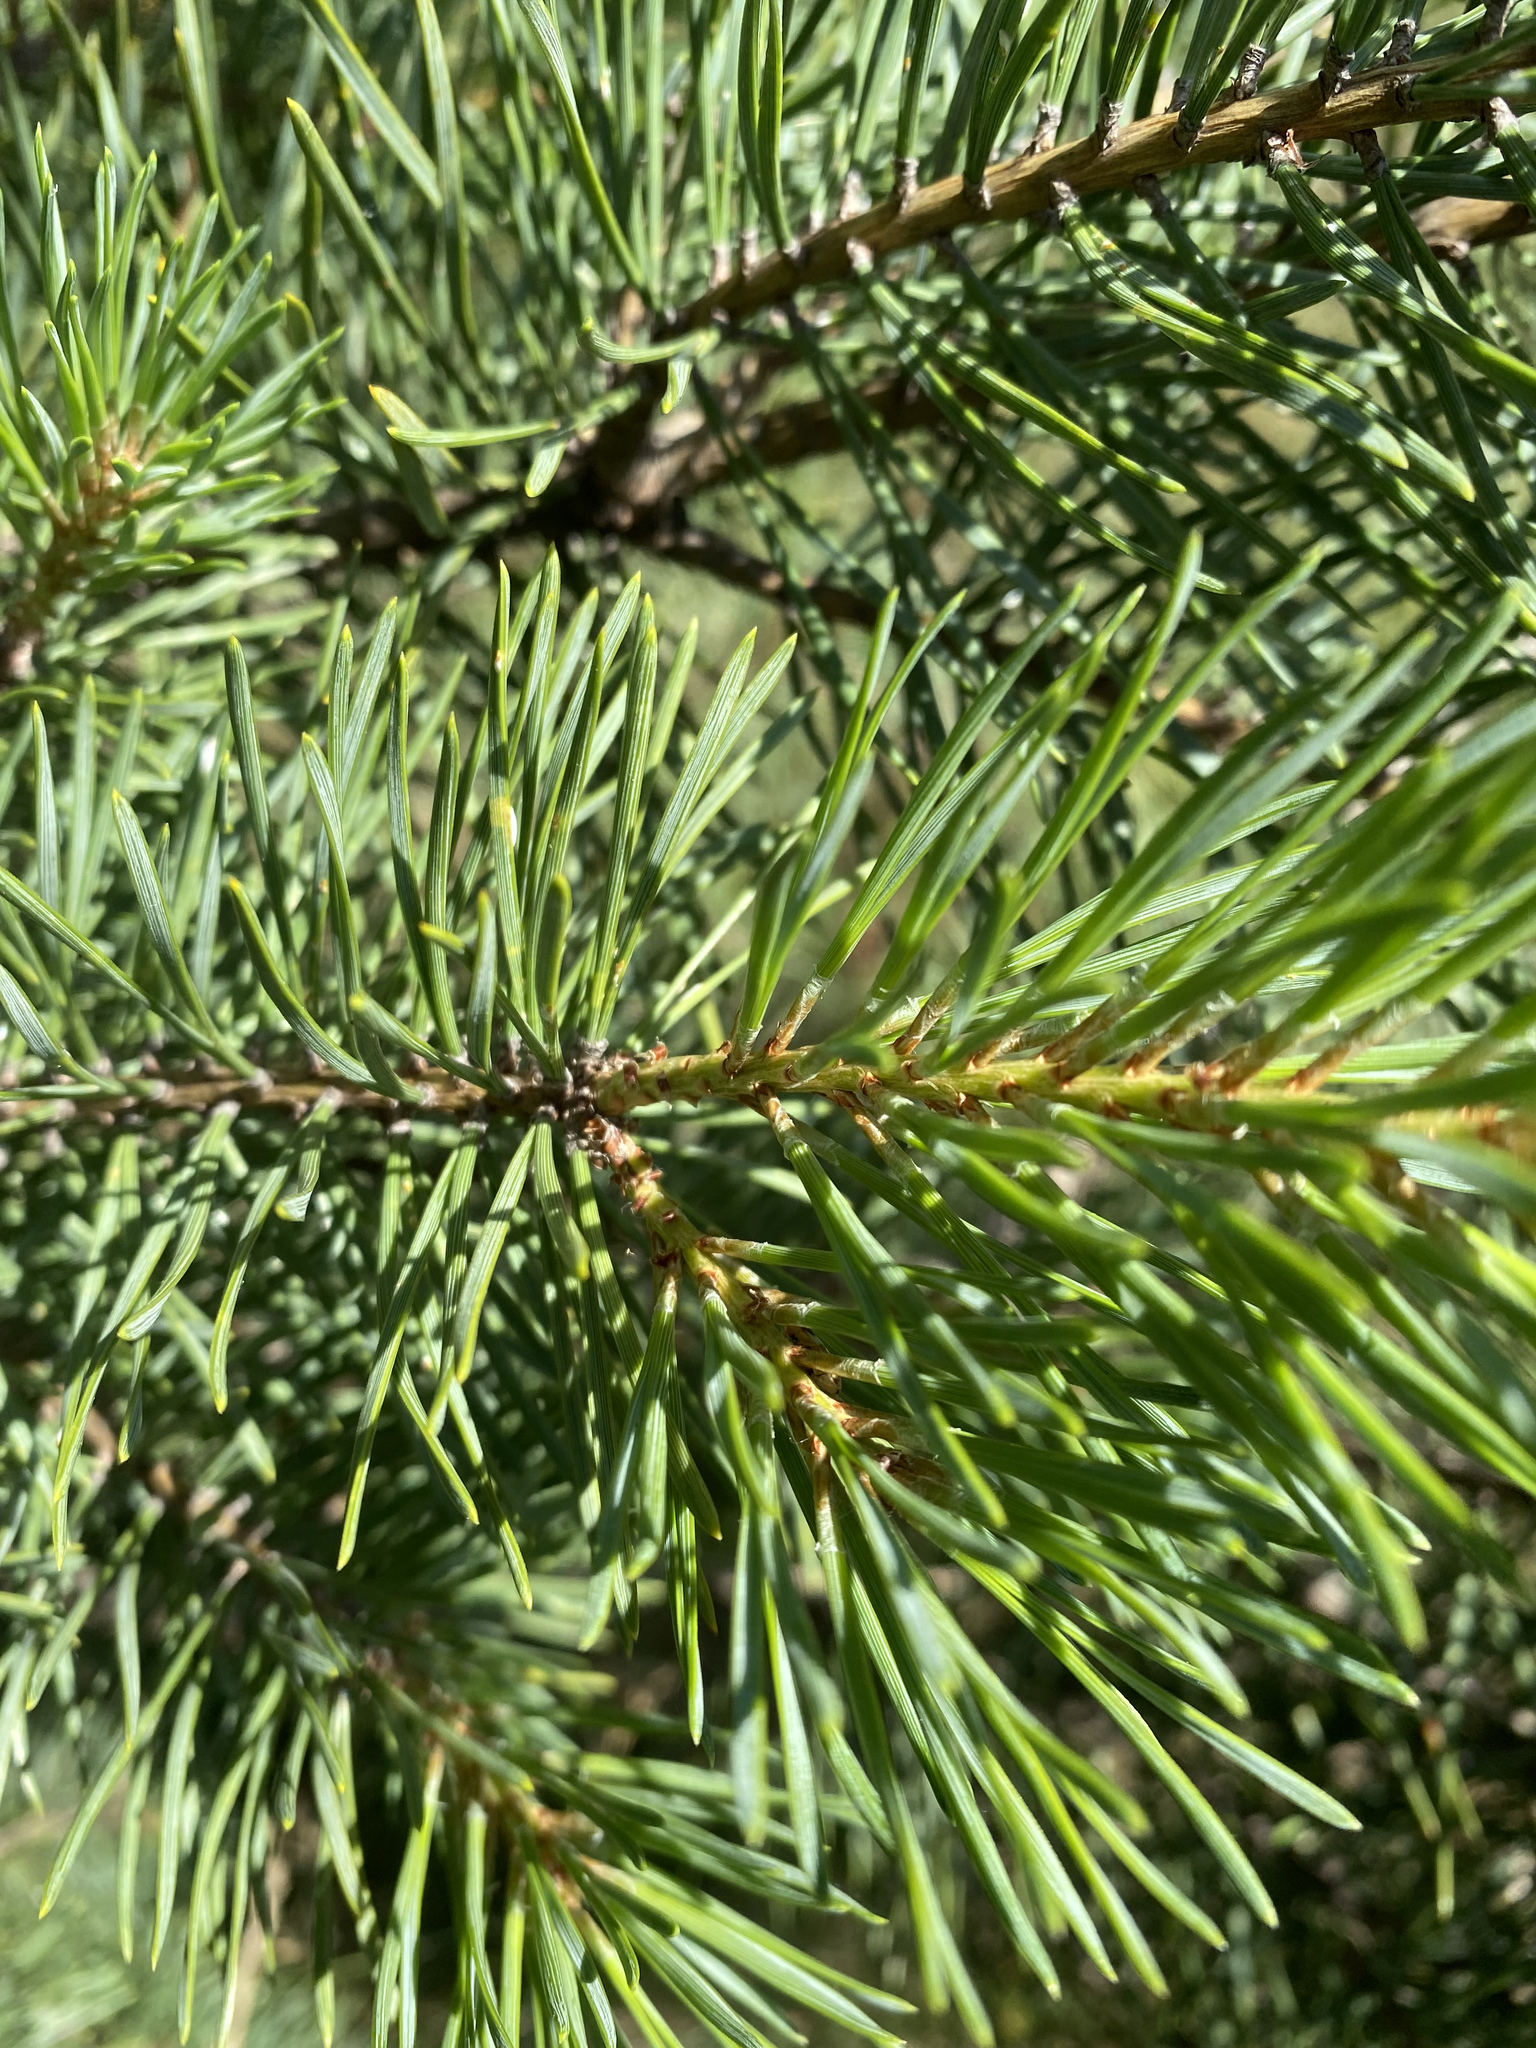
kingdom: Plantae
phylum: Tracheophyta
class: Pinopsida
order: Pinales
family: Pinaceae
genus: Pinus
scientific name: Pinus sylvestris
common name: Scots pine
